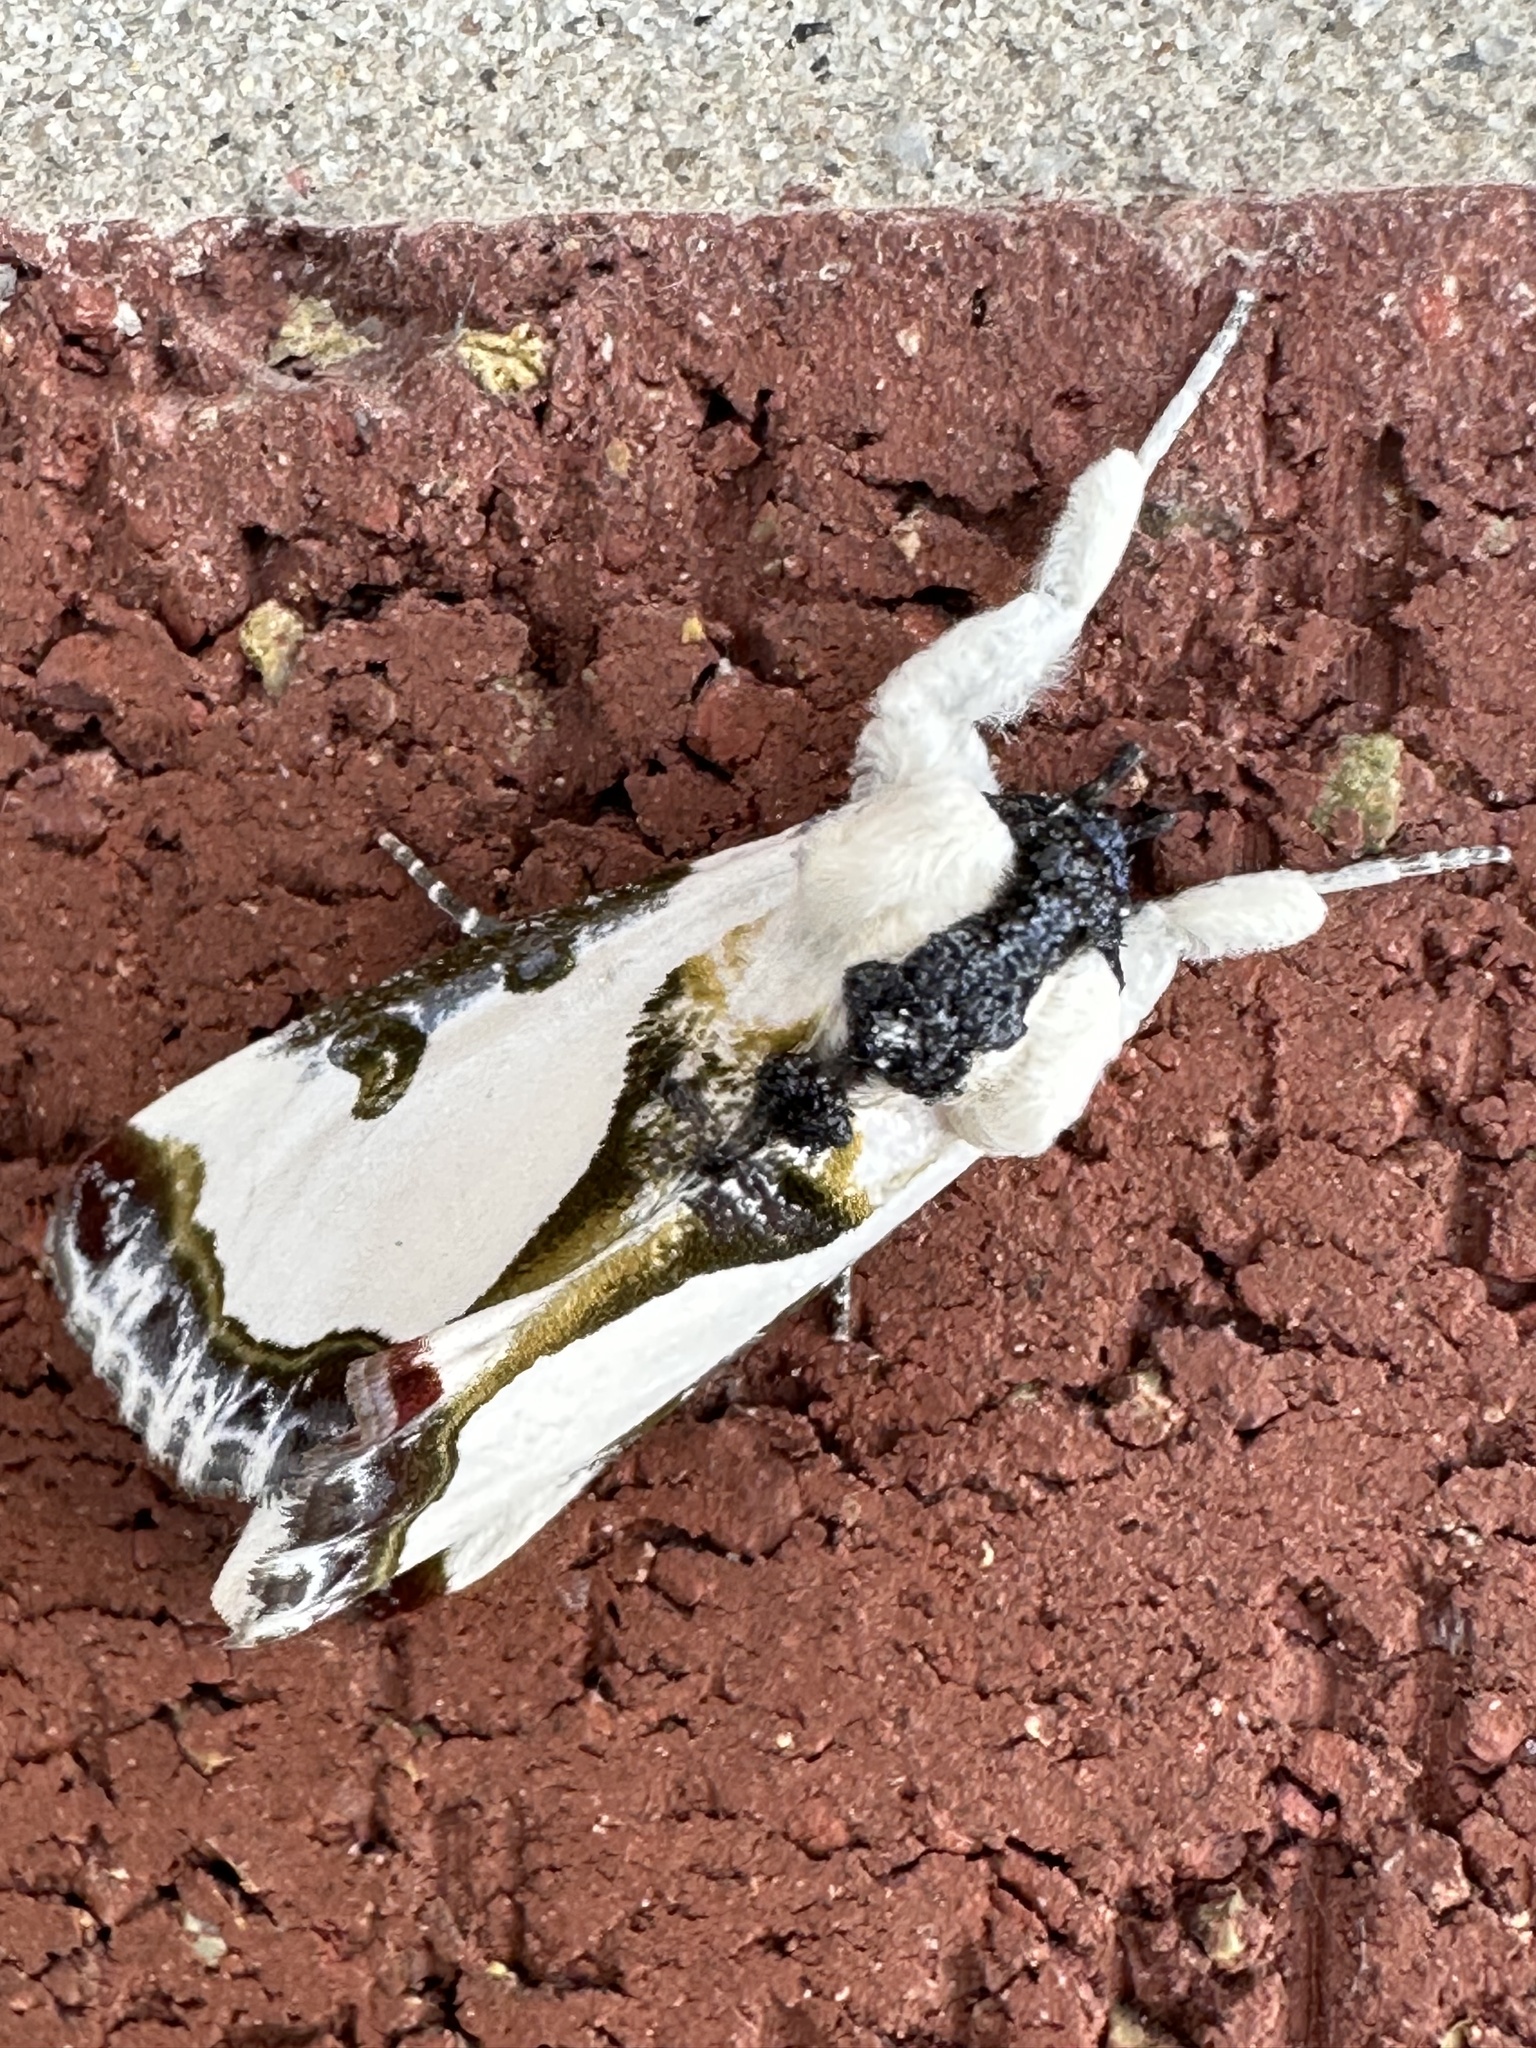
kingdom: Animalia
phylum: Arthropoda
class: Insecta
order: Lepidoptera
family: Noctuidae
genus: Xerociris
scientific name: Xerociris wilsonii
